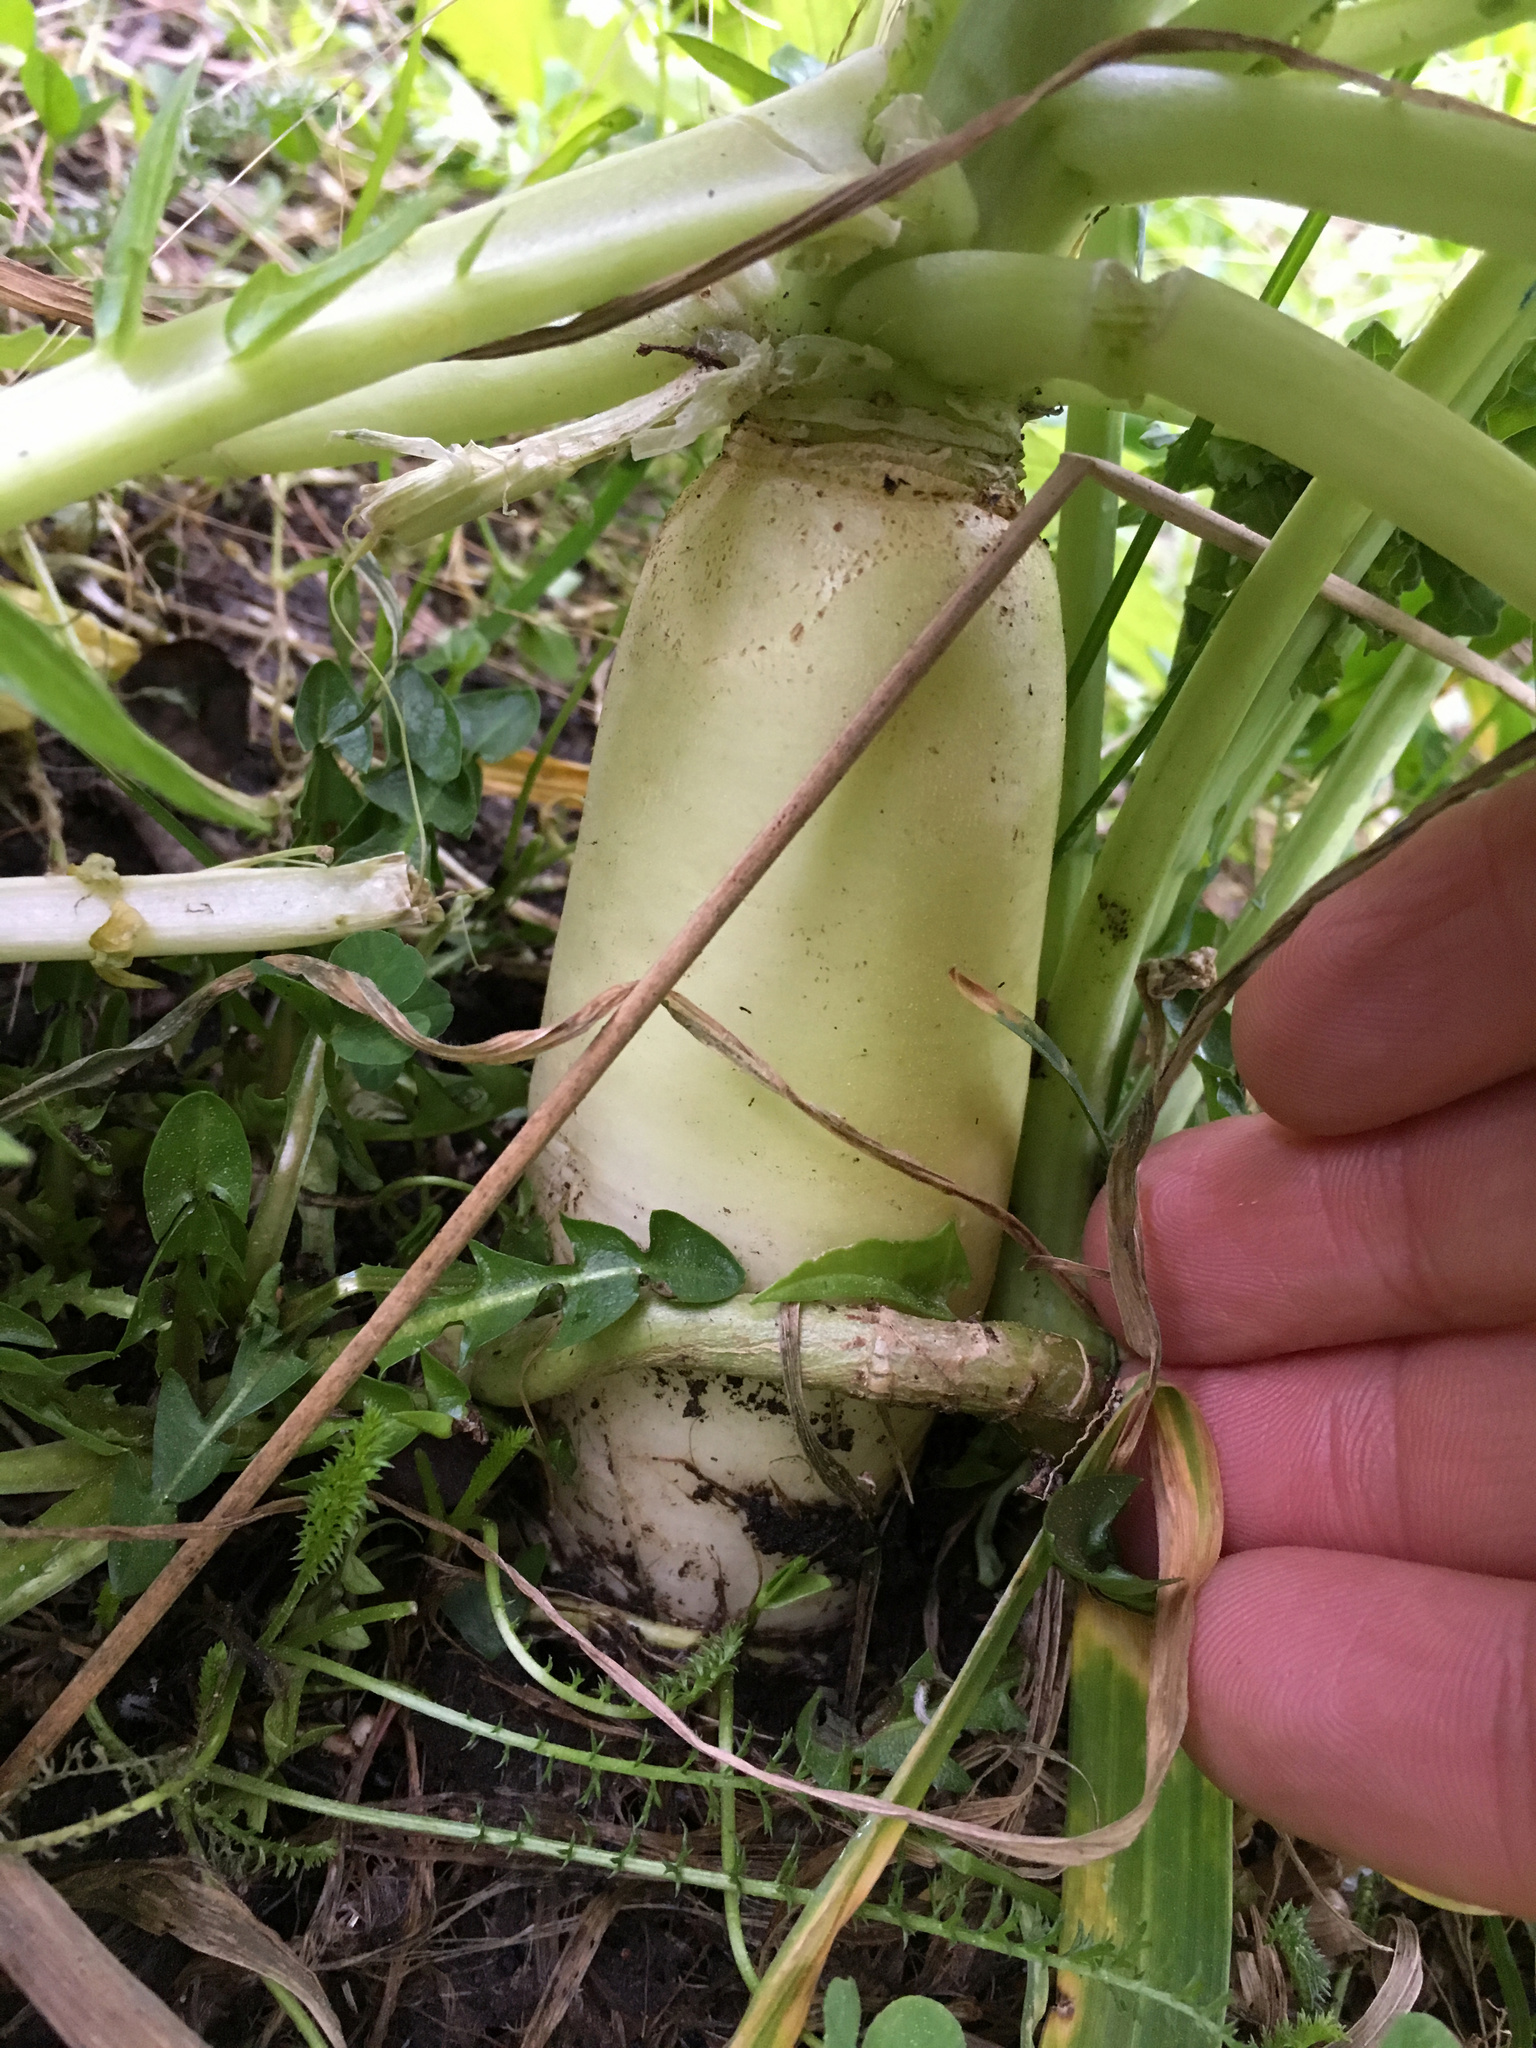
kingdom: Plantae
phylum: Tracheophyta
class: Magnoliopsida
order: Brassicales
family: Brassicaceae
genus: Raphanus
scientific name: Raphanus sativus
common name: Cultivated radish
